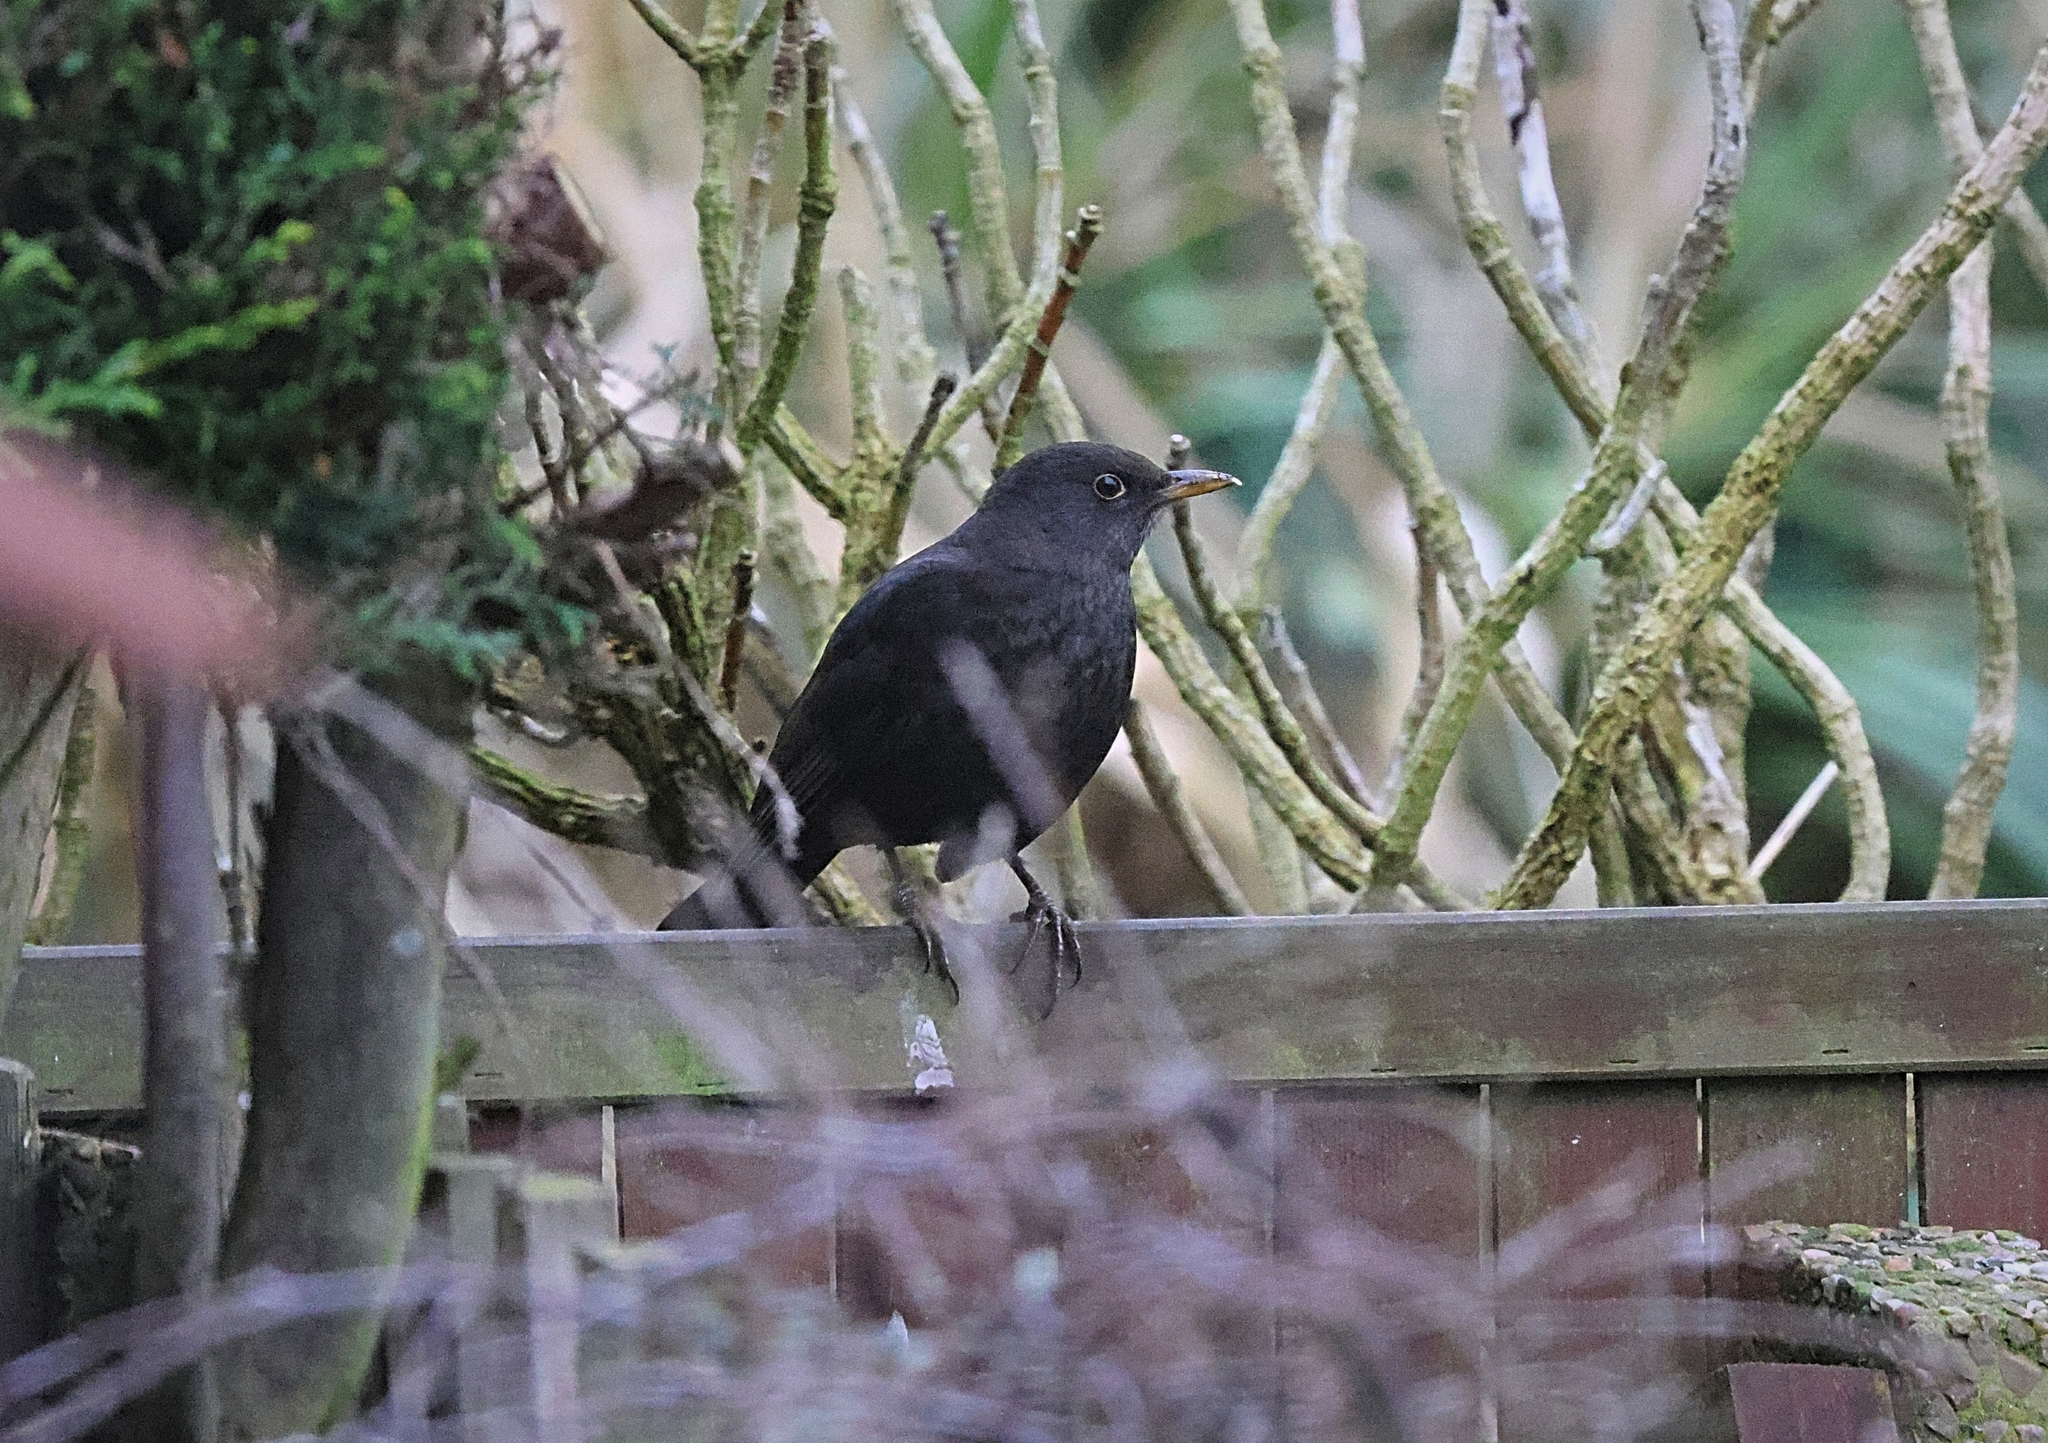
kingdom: Animalia
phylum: Chordata
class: Aves
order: Passeriformes
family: Turdidae
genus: Turdus
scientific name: Turdus merula
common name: Common blackbird
